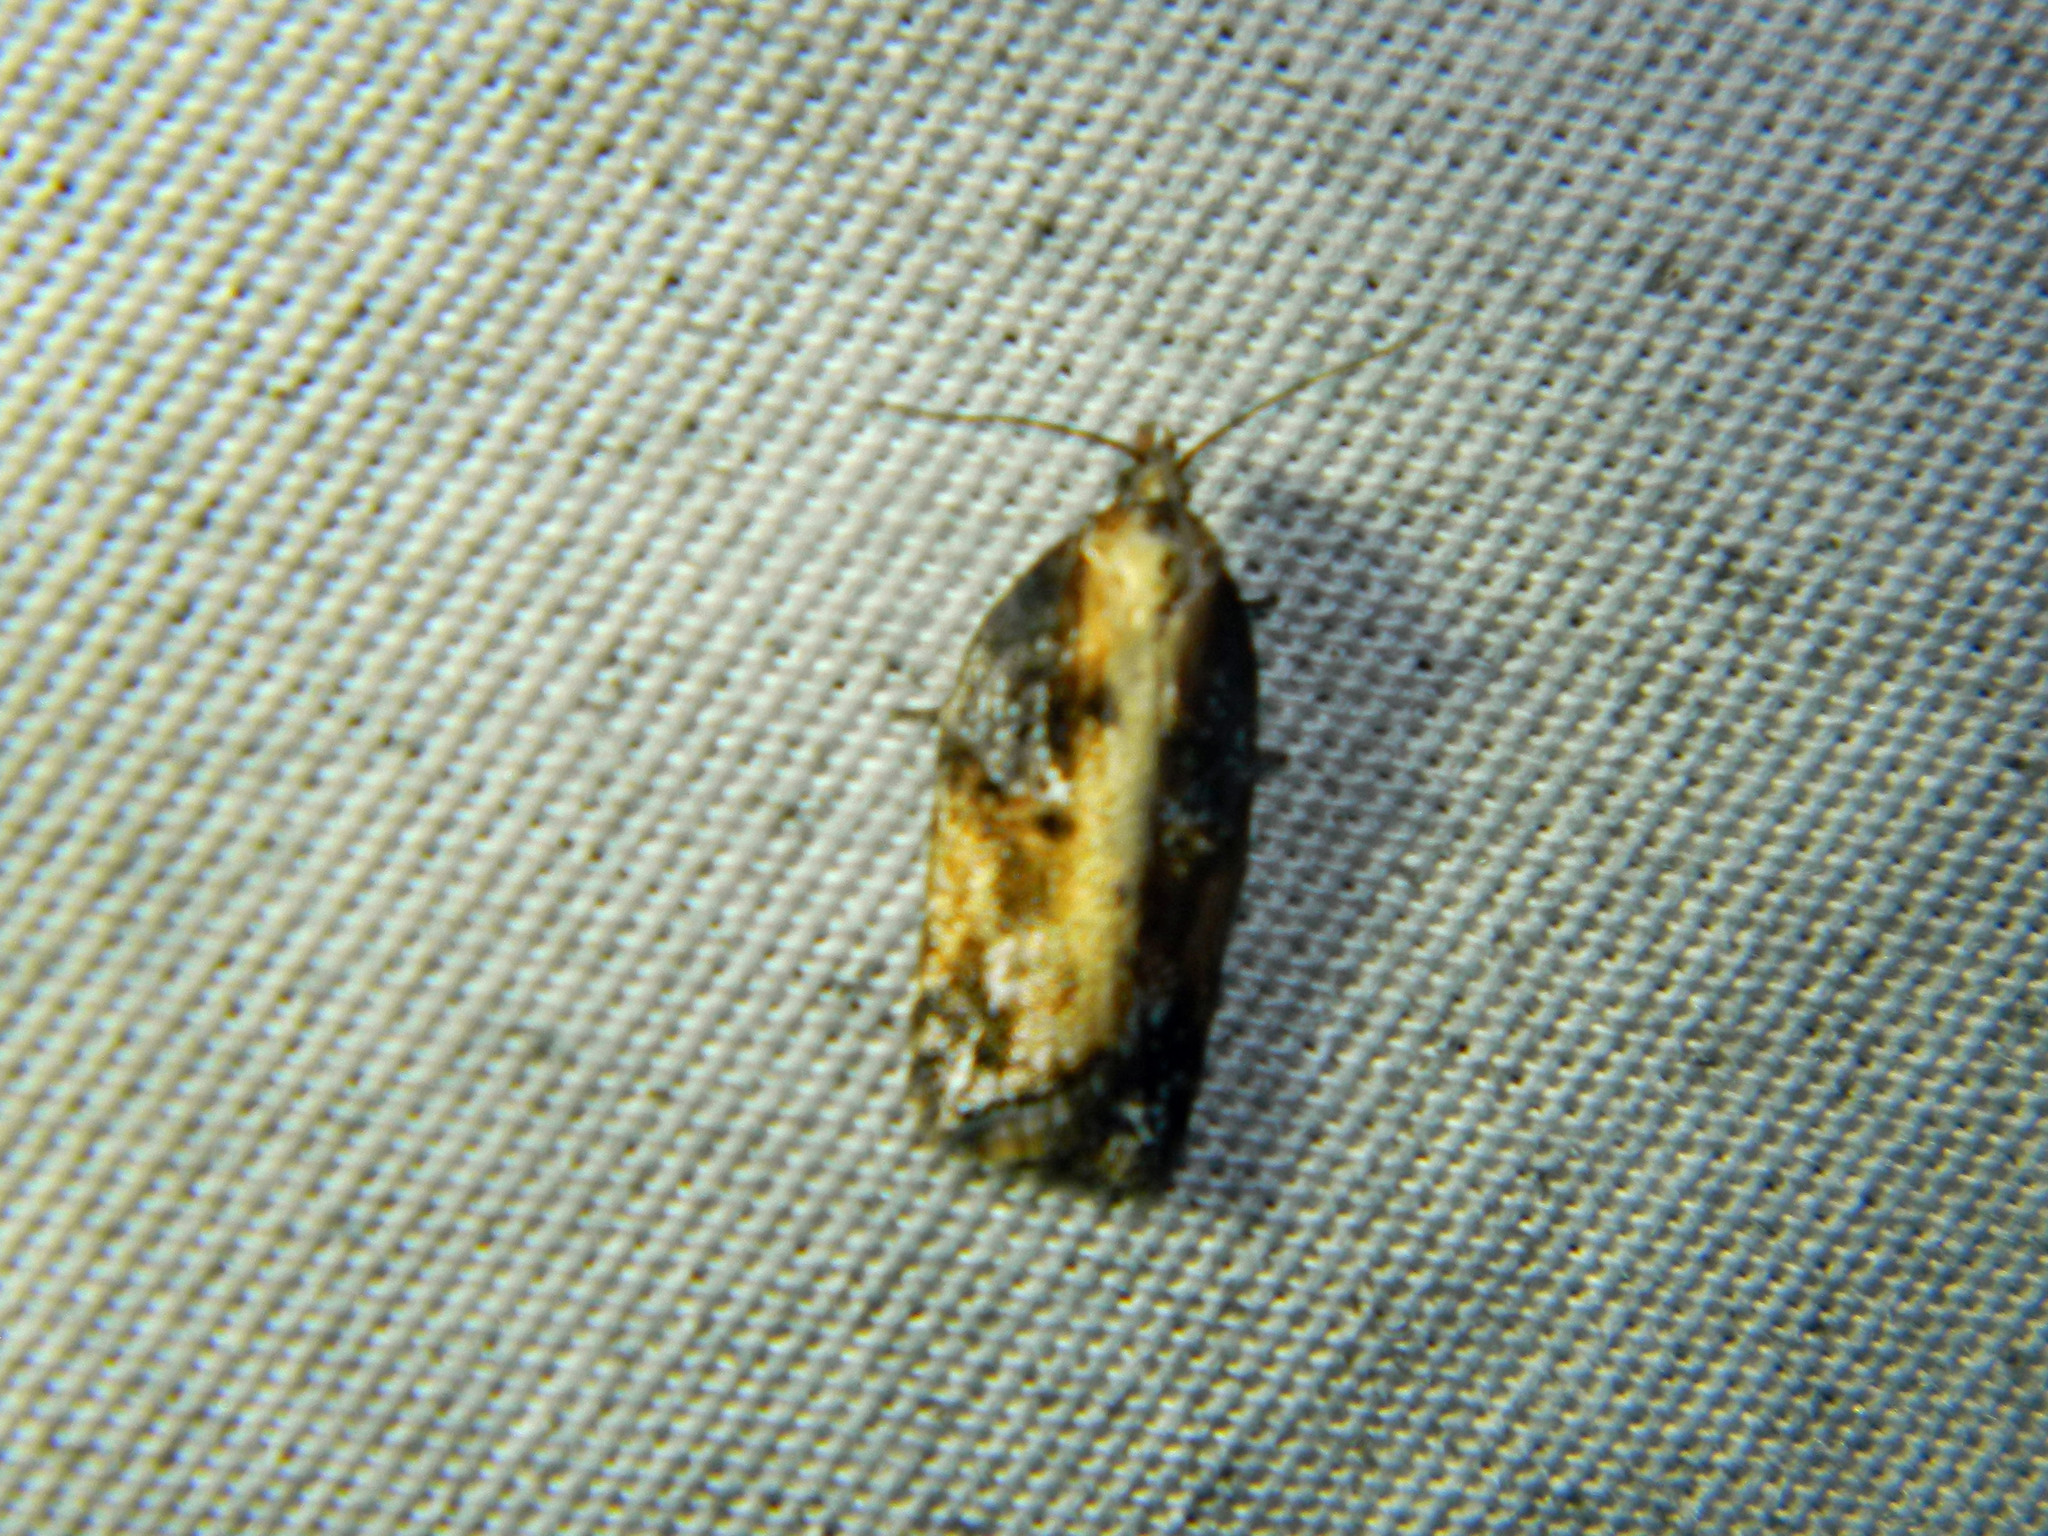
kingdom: Animalia
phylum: Arthropoda
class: Insecta
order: Lepidoptera
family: Tortricidae
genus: Acleris
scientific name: Acleris robinsoniana
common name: Robinson's acleris moth
